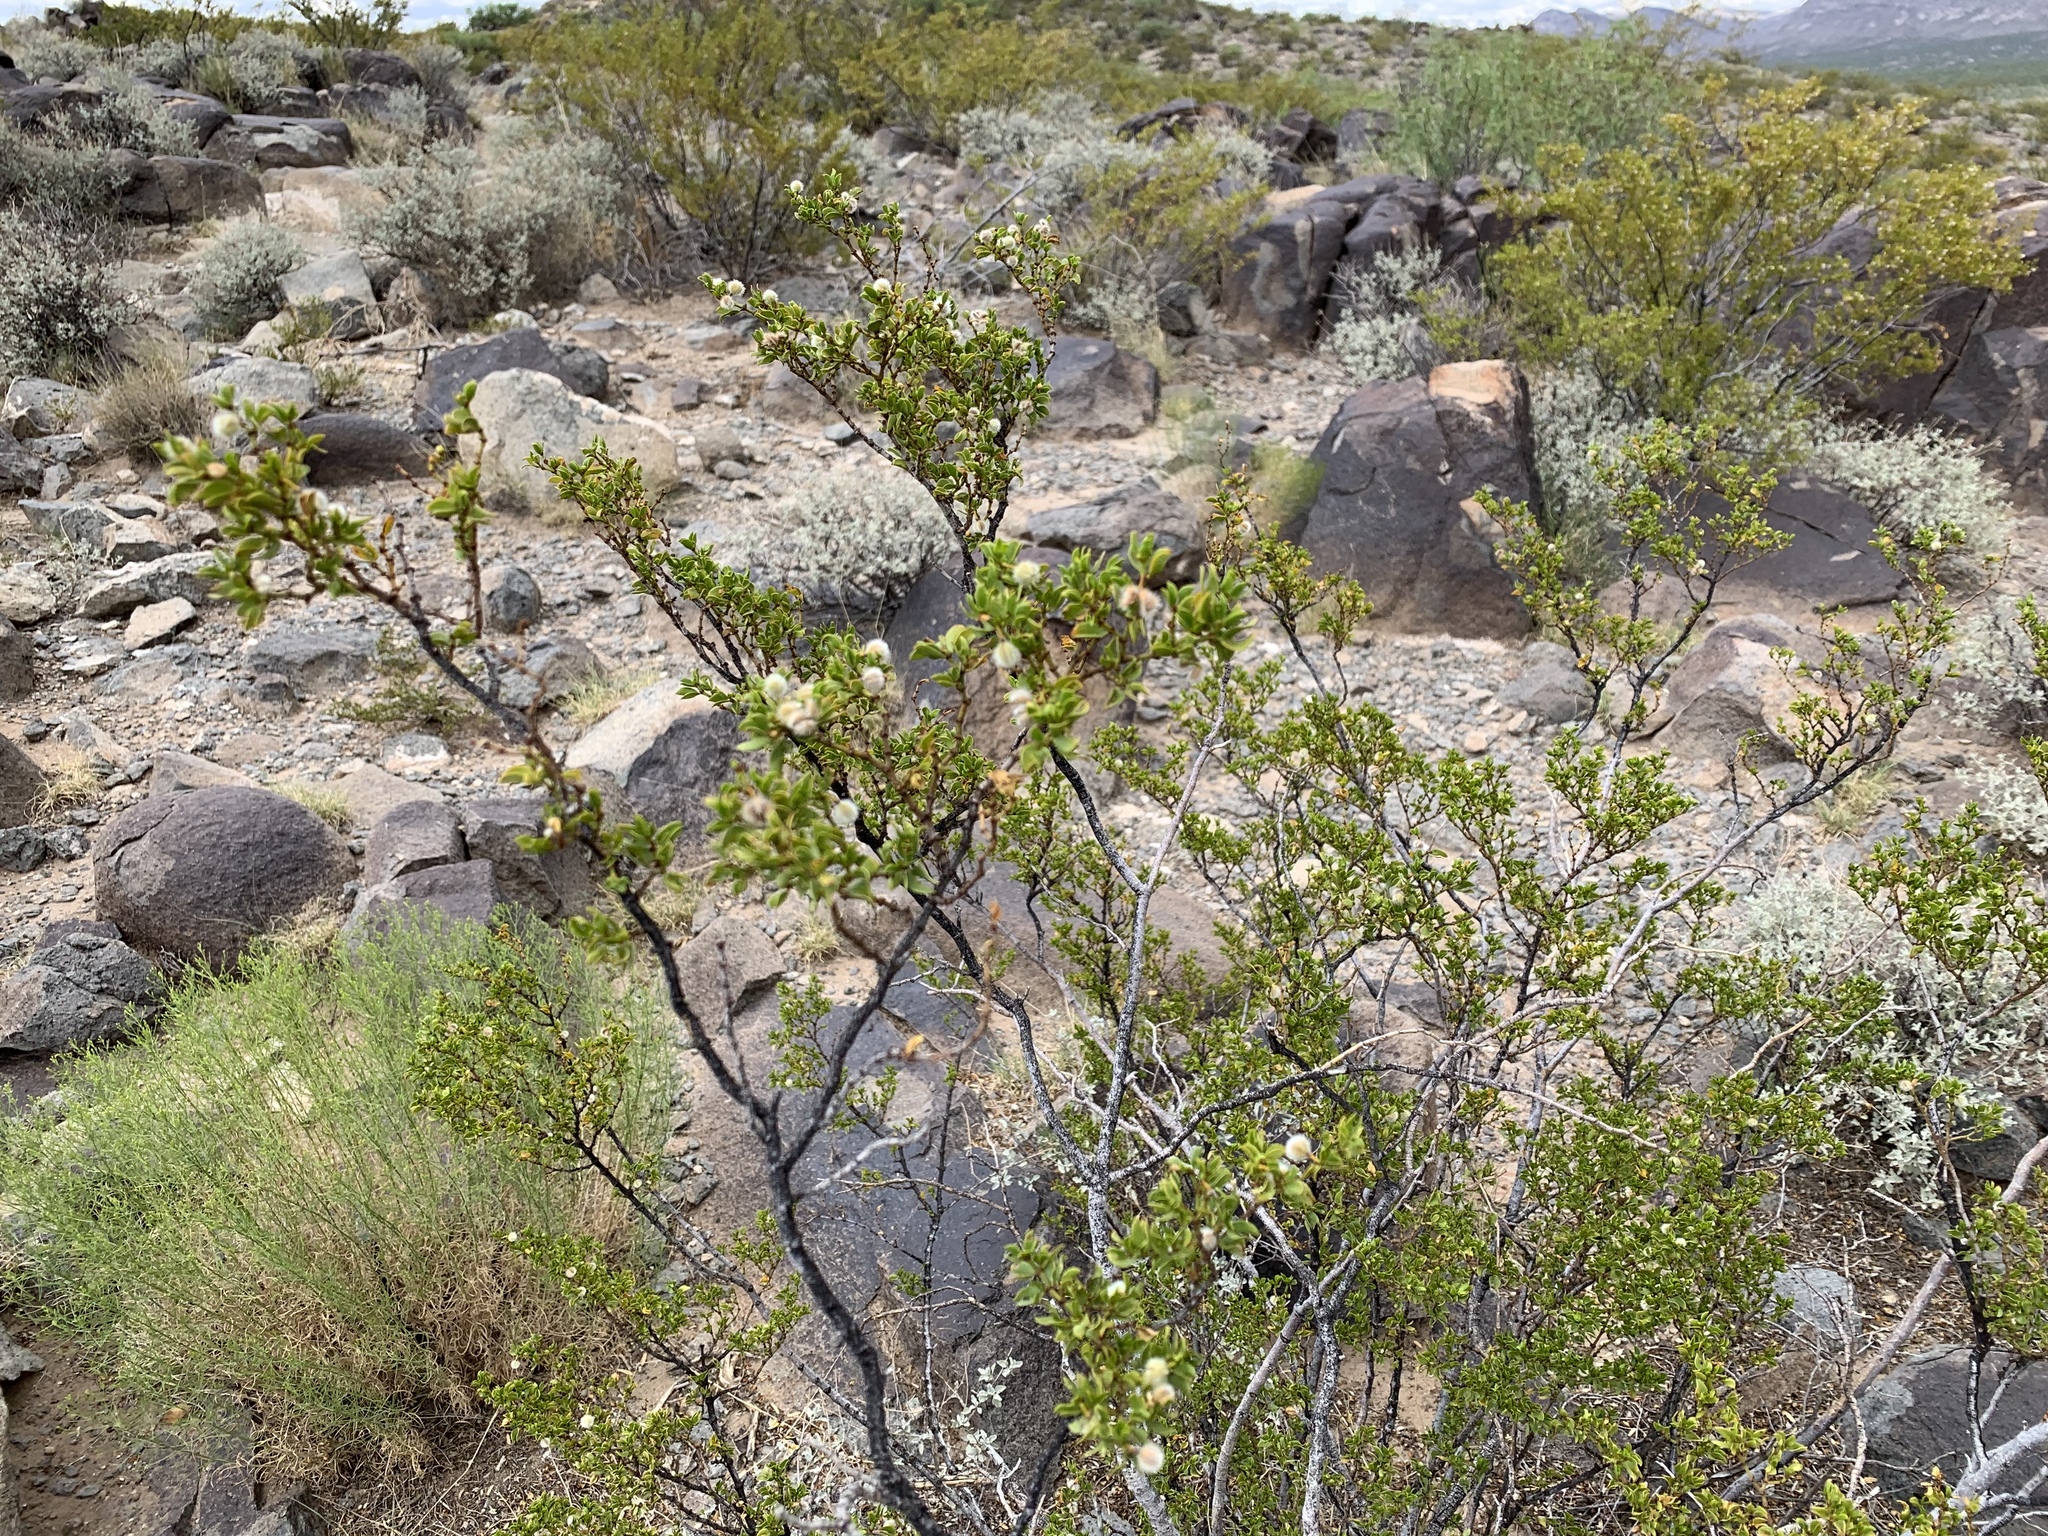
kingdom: Plantae
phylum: Tracheophyta
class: Magnoliopsida
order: Zygophyllales
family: Zygophyllaceae
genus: Larrea
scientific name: Larrea tridentata
